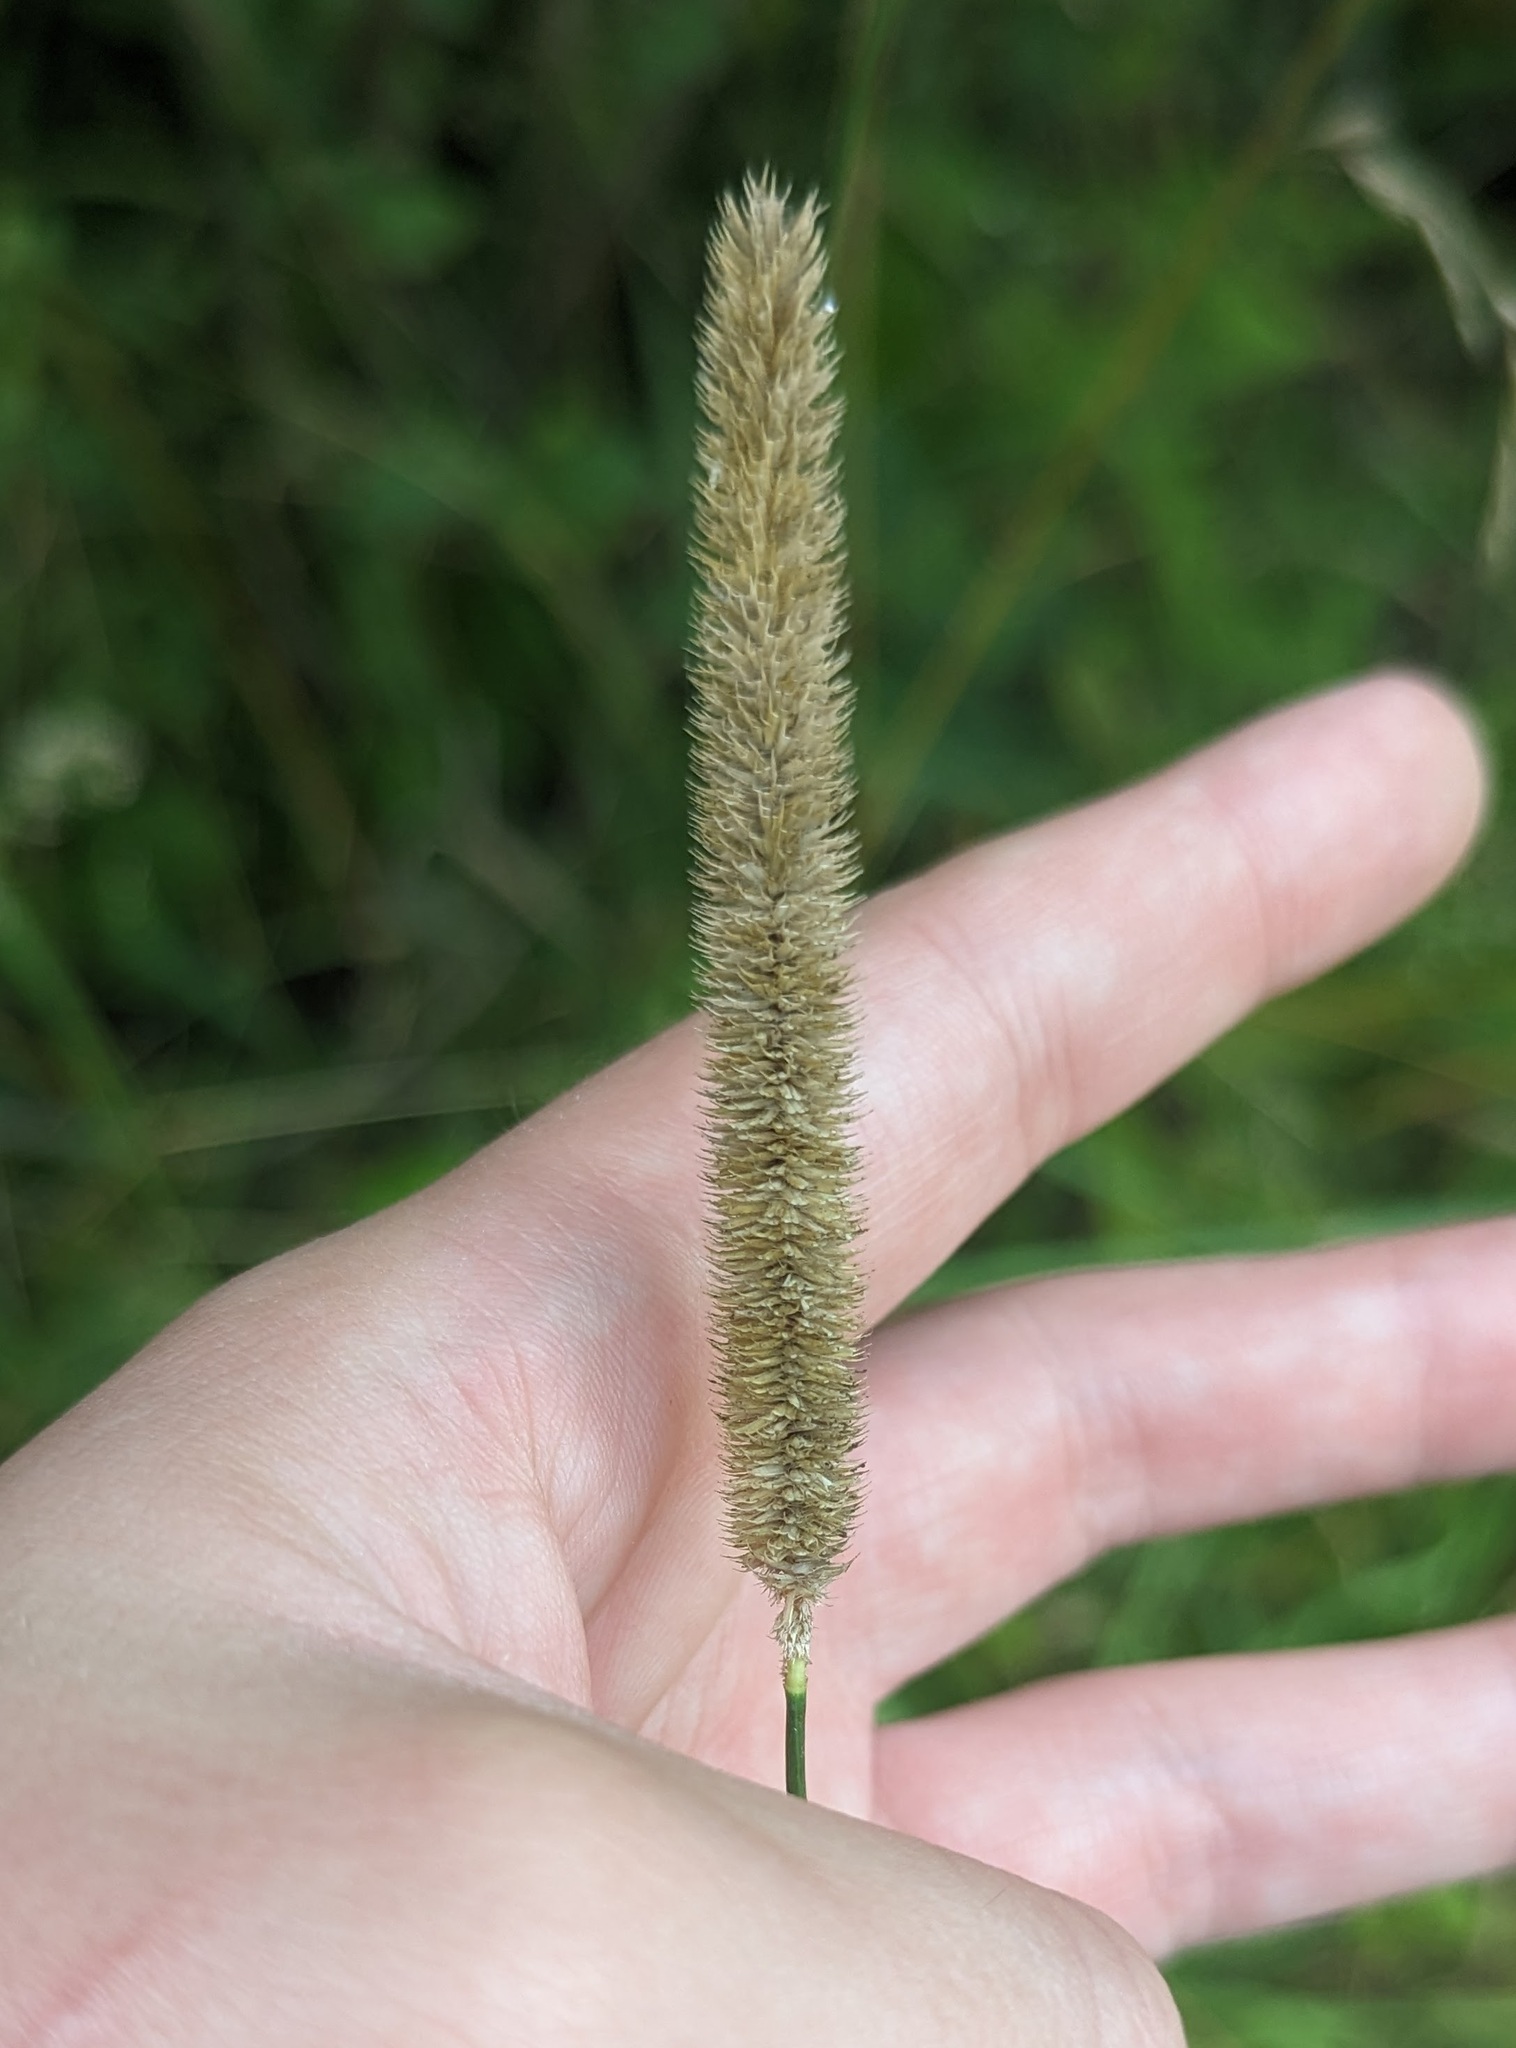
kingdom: Plantae
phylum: Tracheophyta
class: Liliopsida
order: Poales
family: Poaceae
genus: Phleum
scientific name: Phleum pratense
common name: Timothy grass
